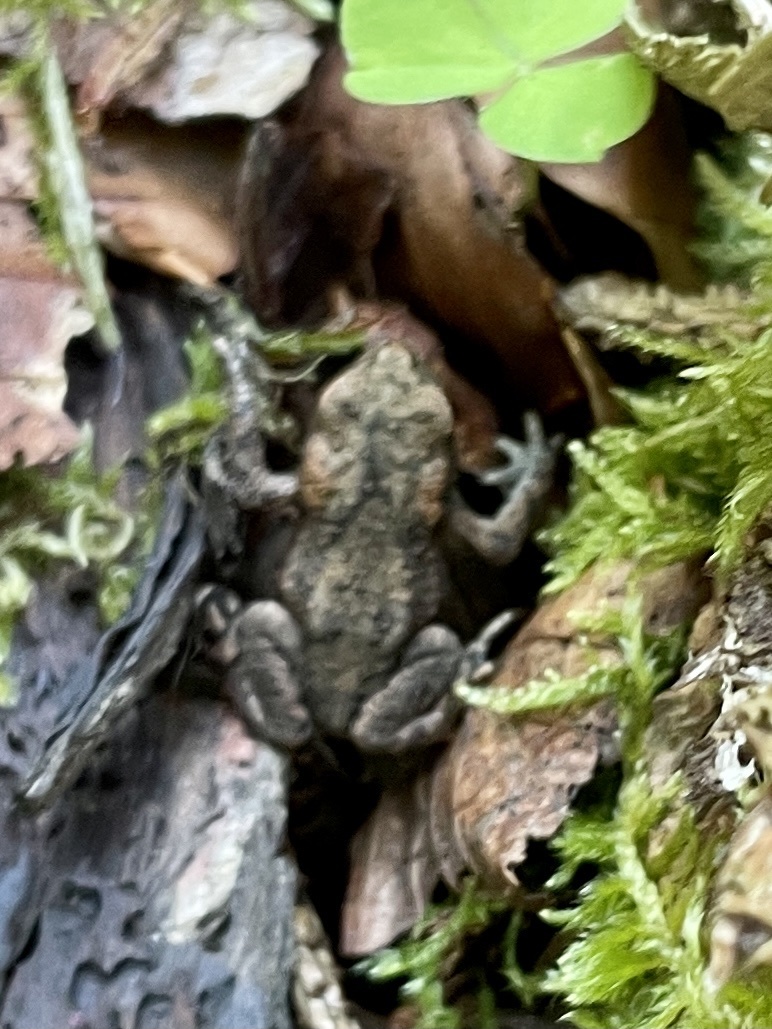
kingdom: Animalia
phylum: Chordata
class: Amphibia
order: Anura
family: Bufonidae
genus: Bufo
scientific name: Bufo bufo
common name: Common toad
